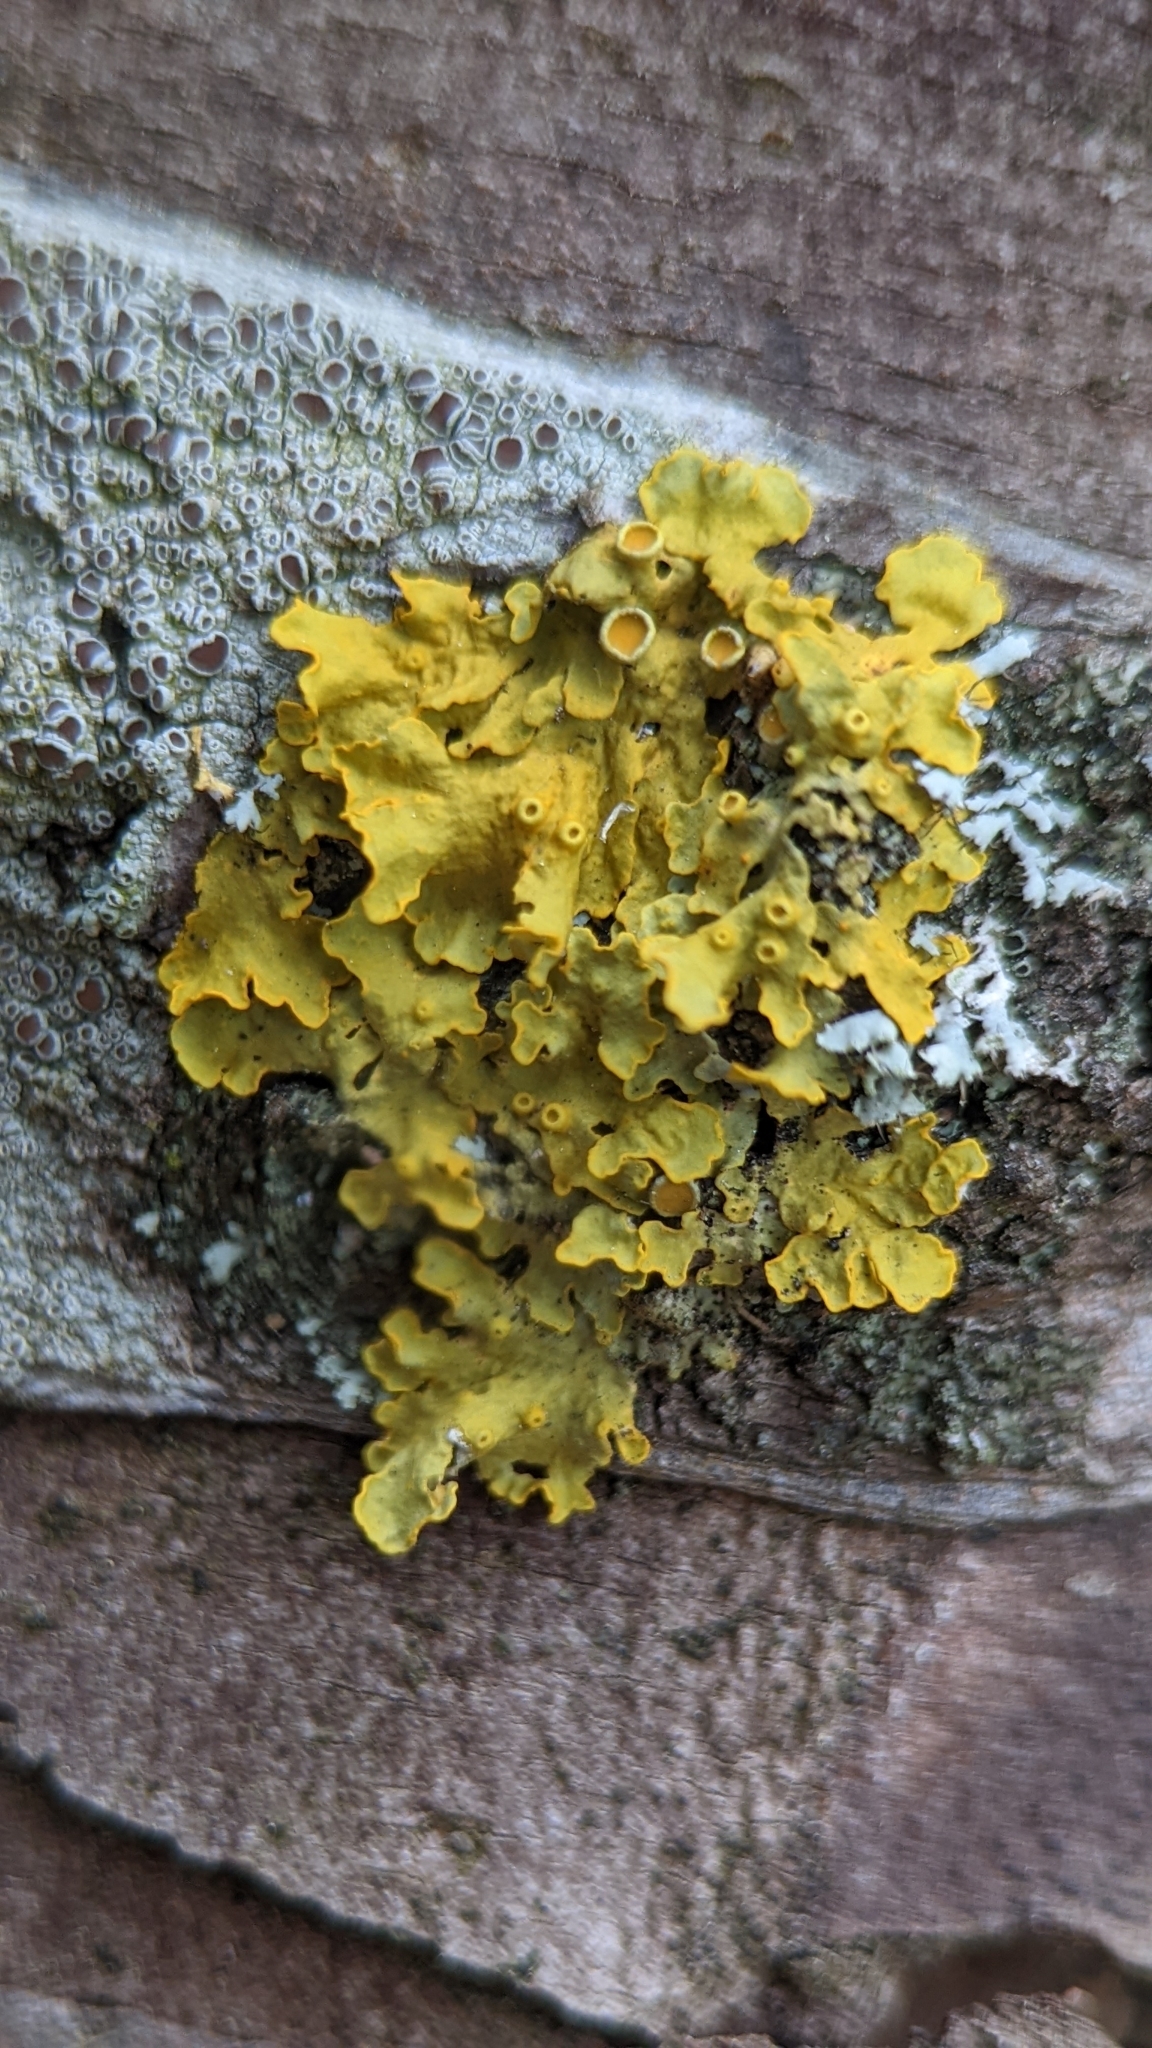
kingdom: Fungi
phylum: Ascomycota
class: Lecanoromycetes
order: Teloschistales
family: Teloschistaceae
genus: Xanthoria
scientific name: Xanthoria parietina
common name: Common orange lichen
